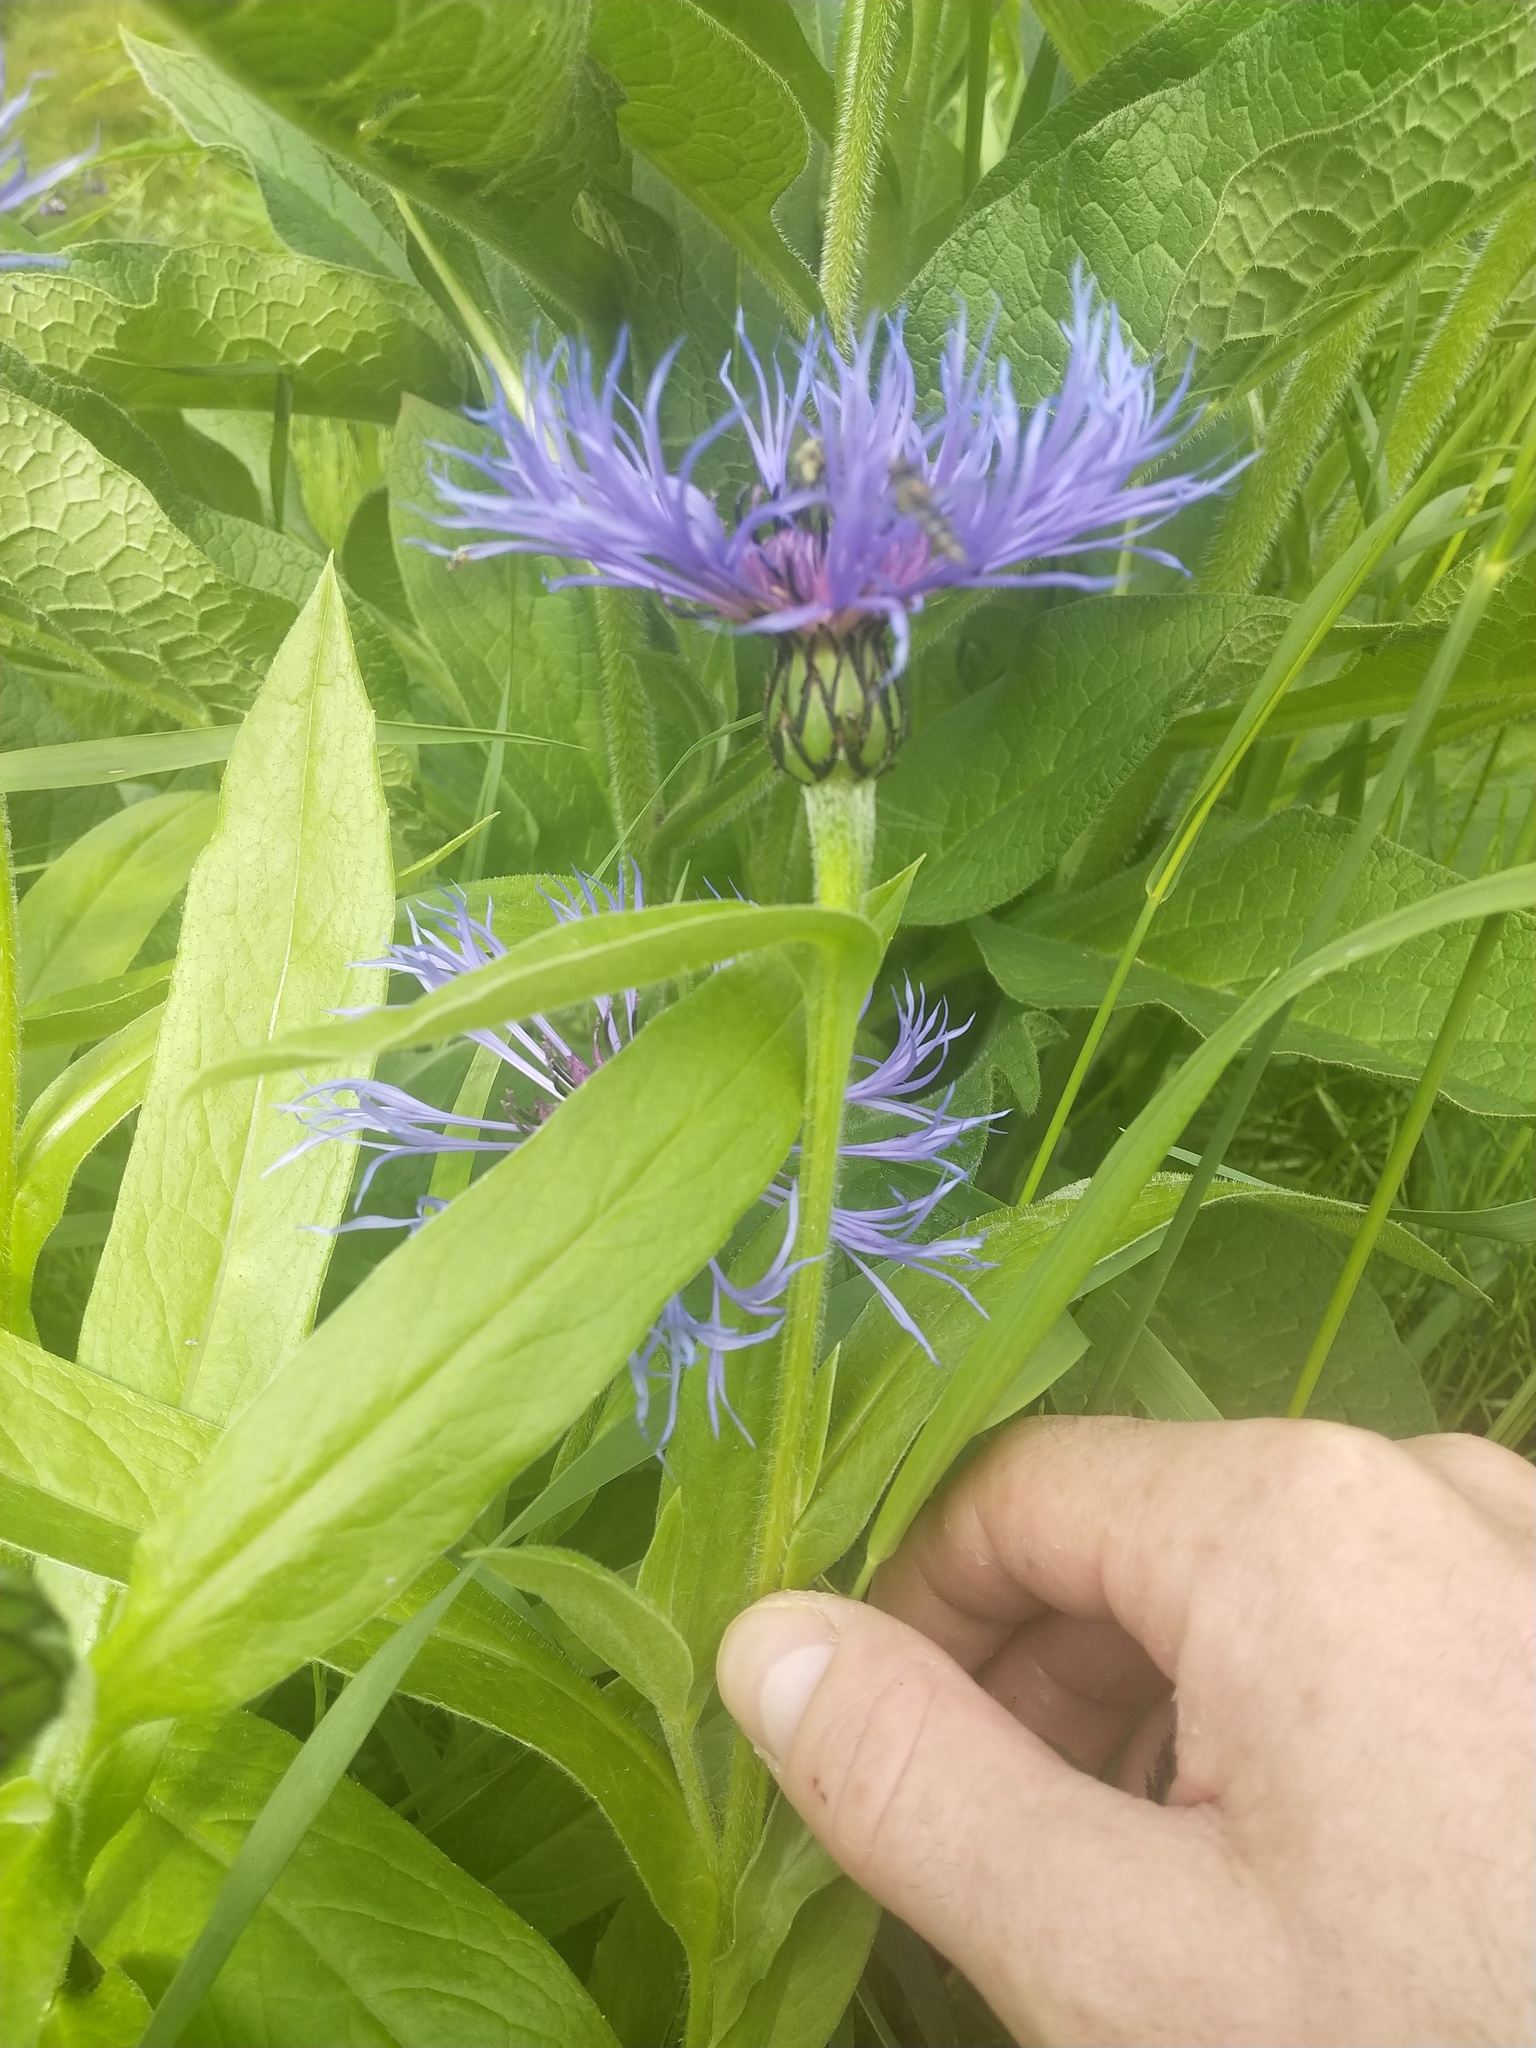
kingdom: Plantae
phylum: Tracheophyta
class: Magnoliopsida
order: Asterales
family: Asteraceae
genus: Centaurea
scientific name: Centaurea montana
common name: Perennial cornflower
